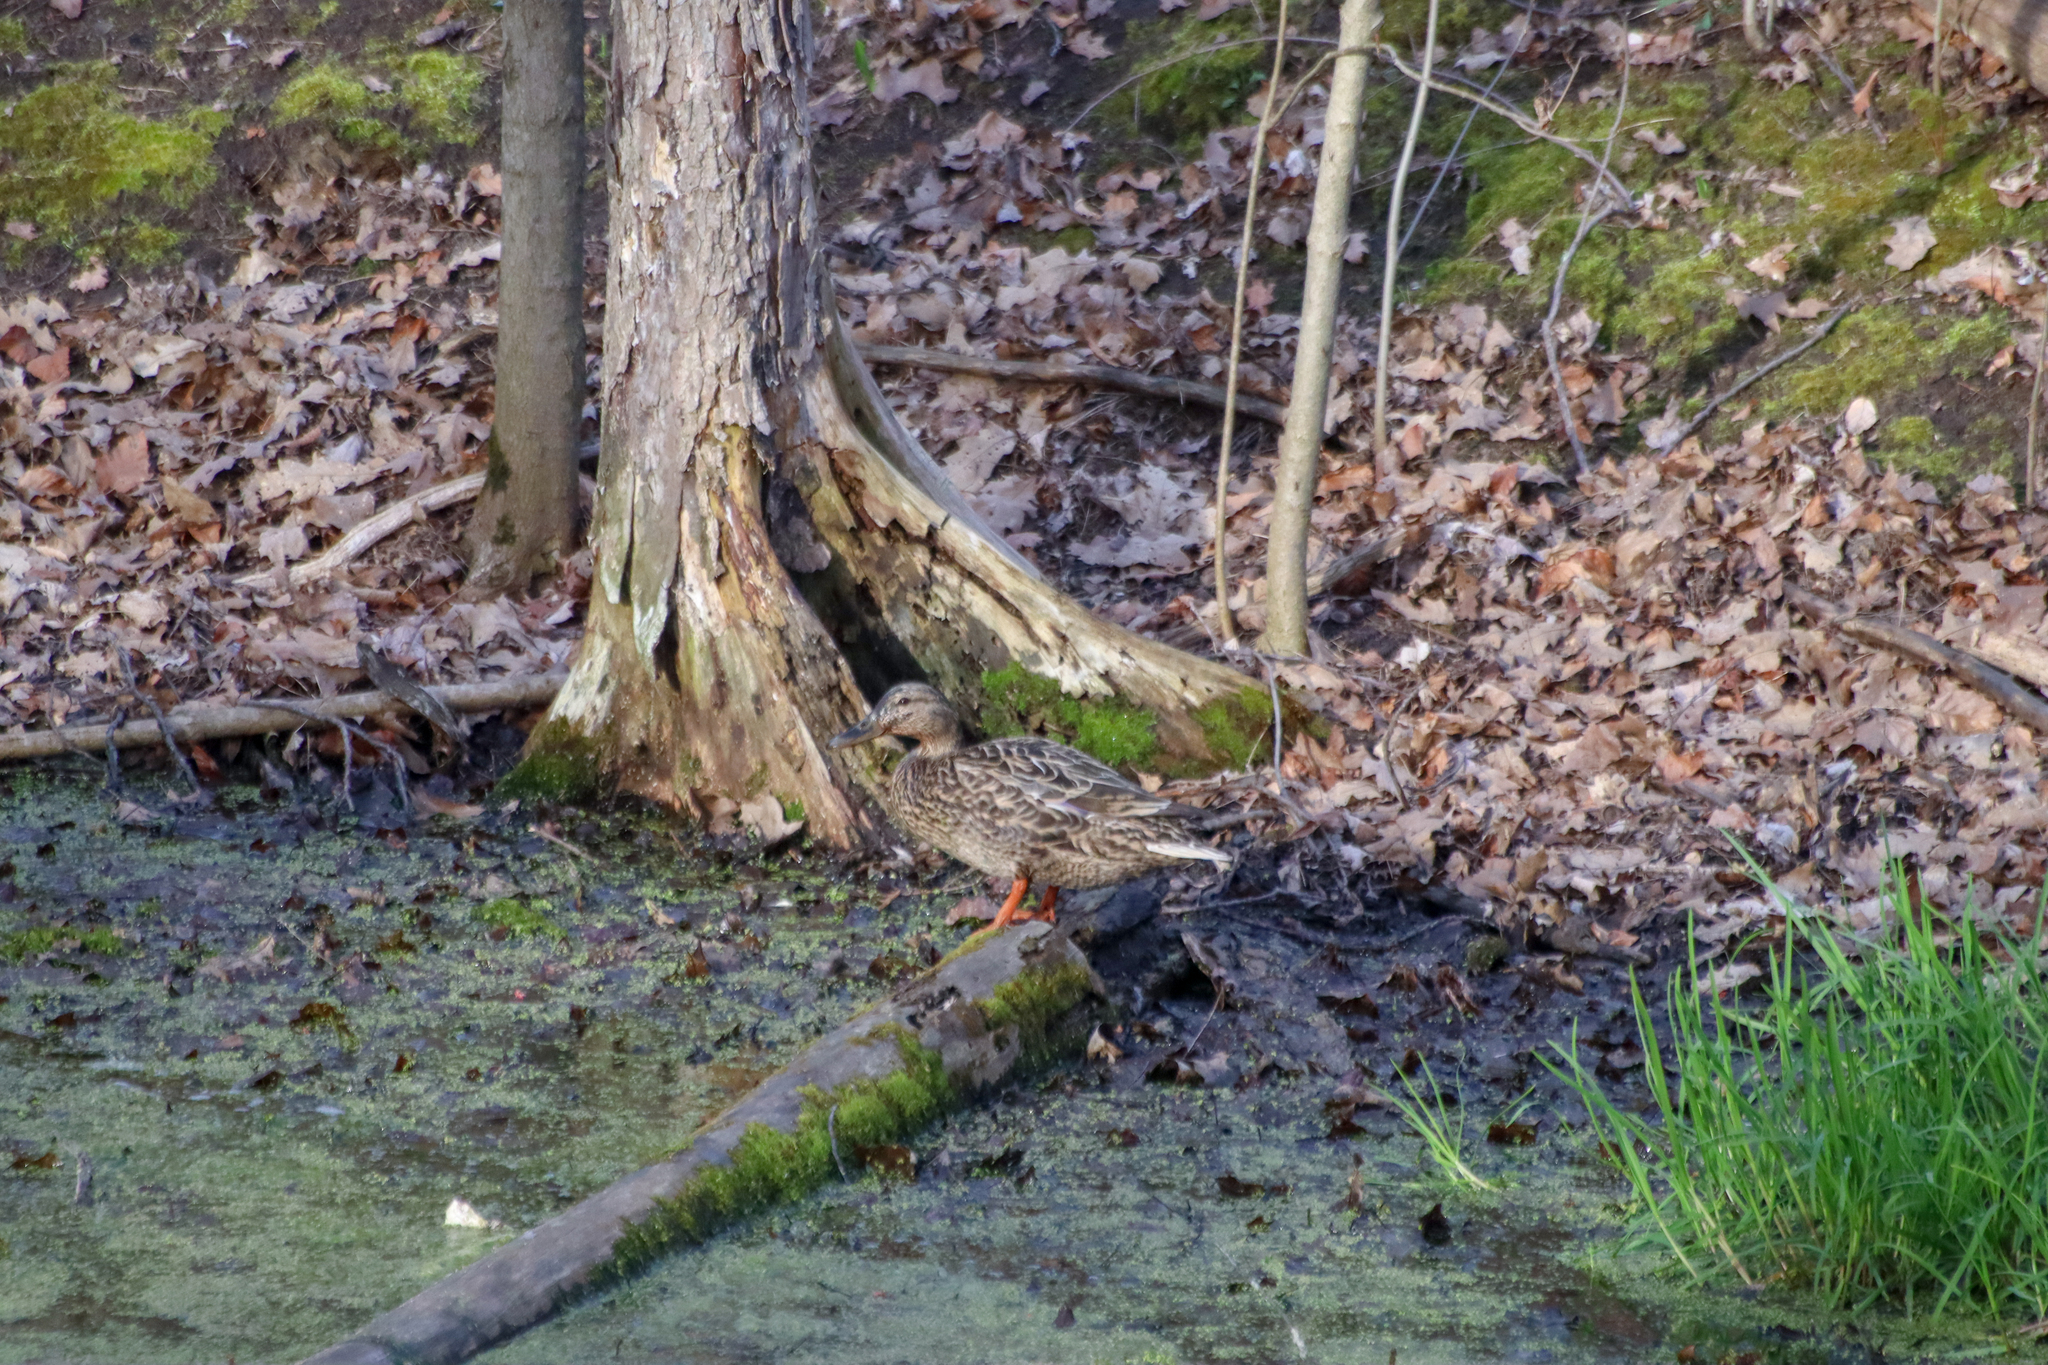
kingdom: Animalia
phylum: Chordata
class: Aves
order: Anseriformes
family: Anatidae
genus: Anas
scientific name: Anas platyrhynchos
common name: Mallard
